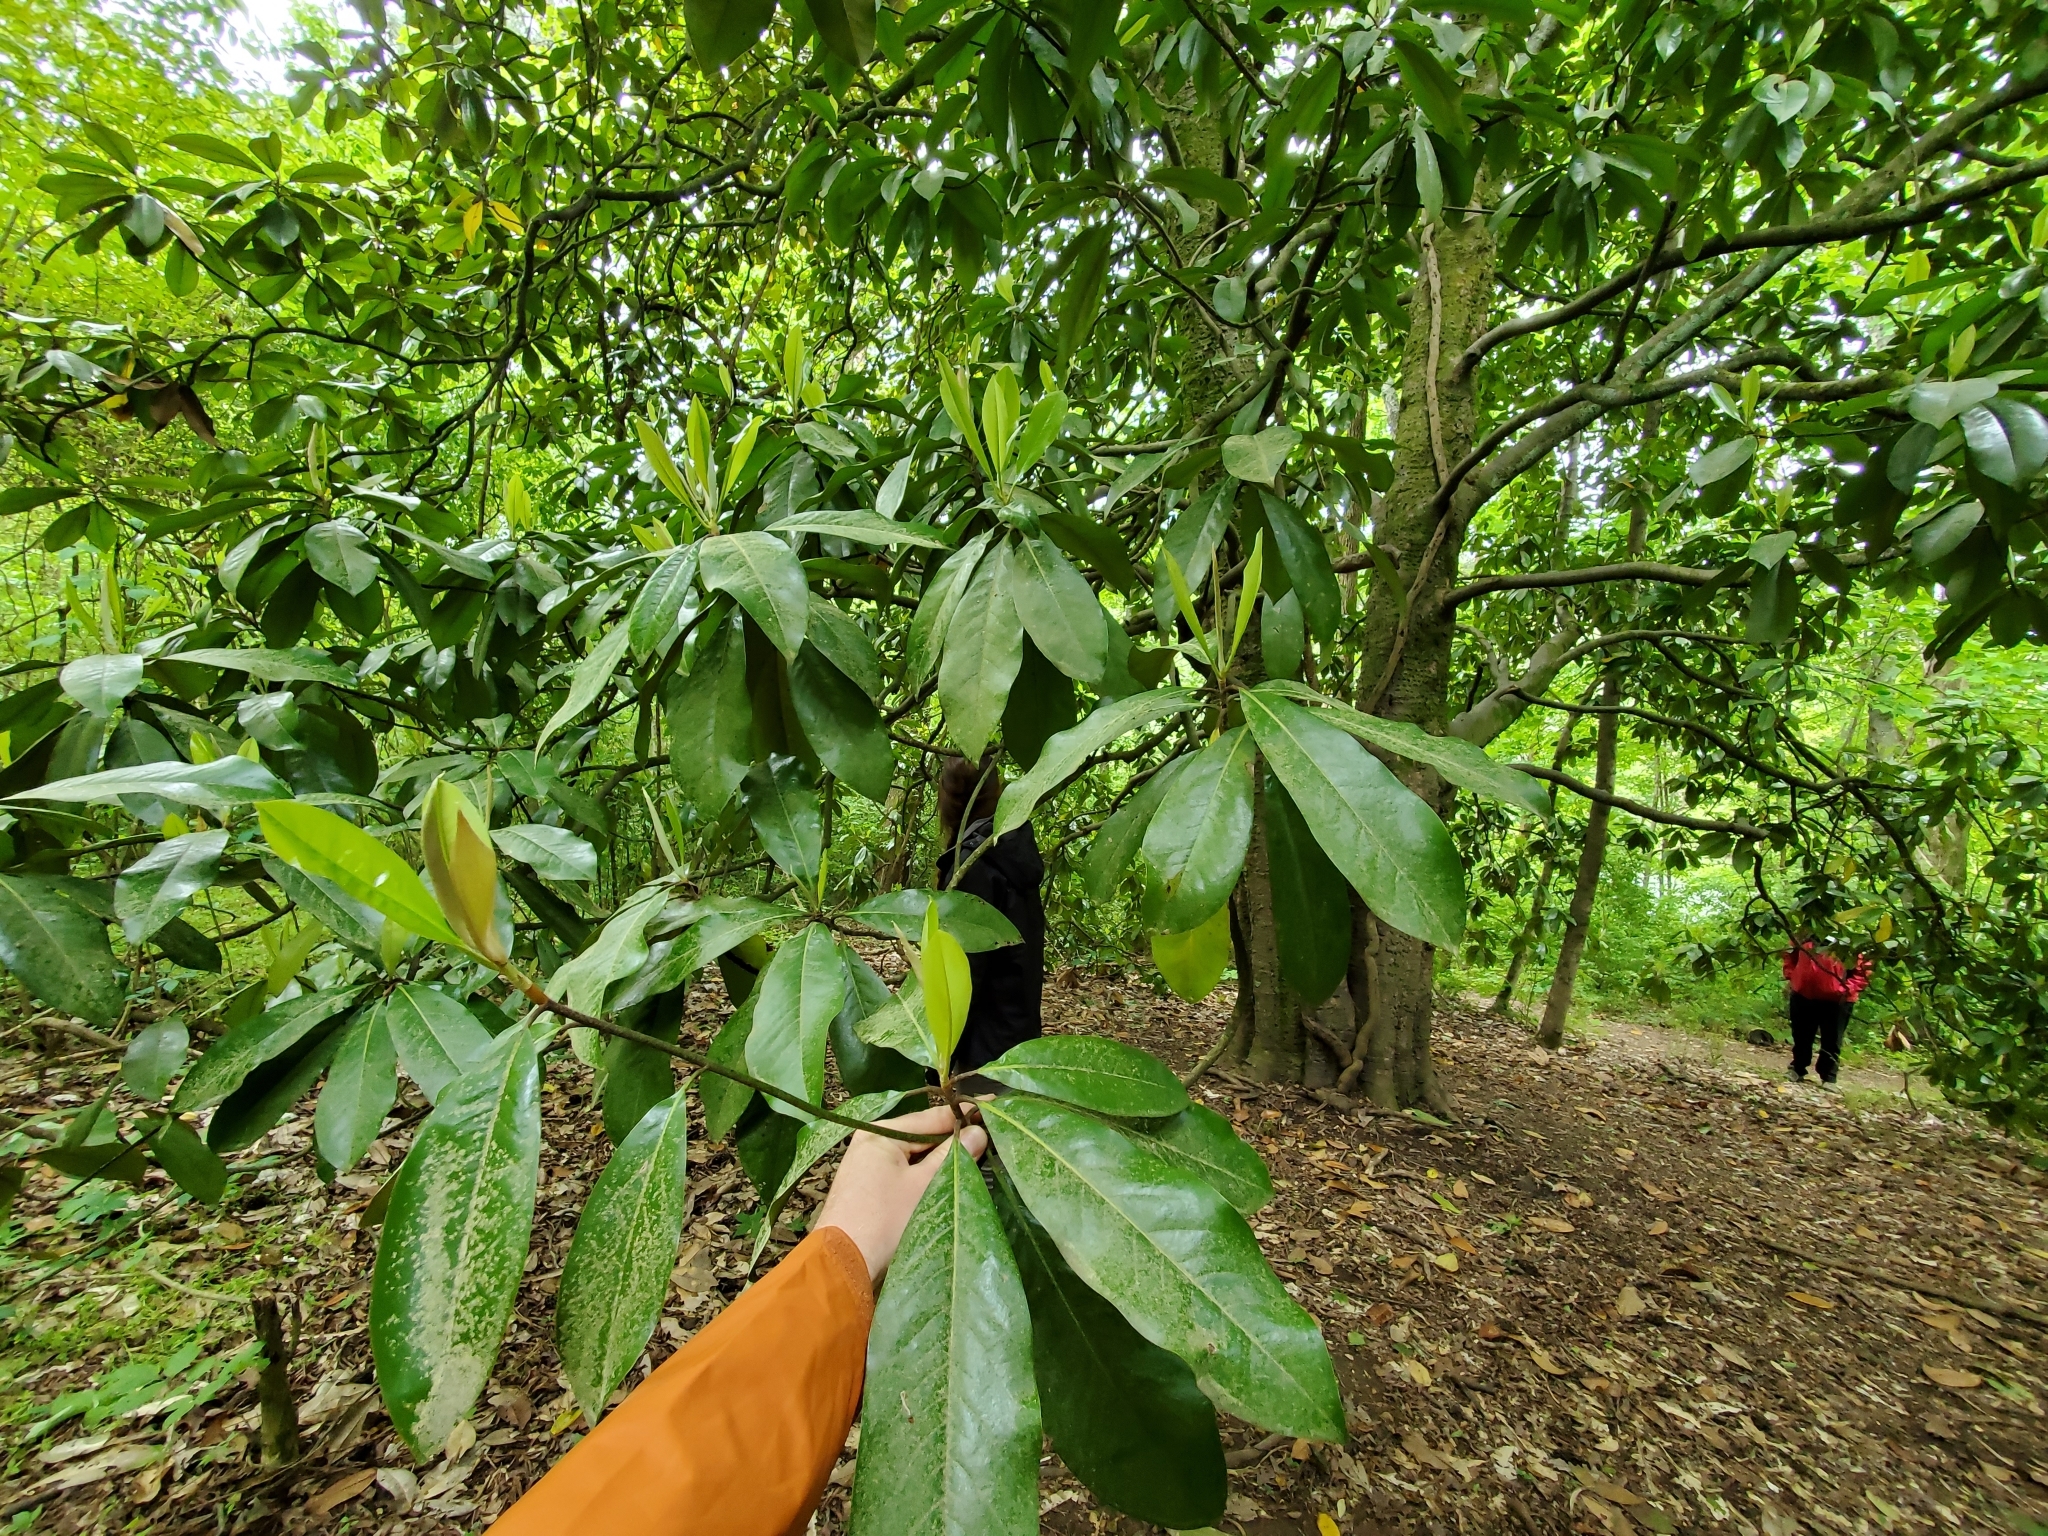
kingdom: Plantae
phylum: Tracheophyta
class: Magnoliopsida
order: Magnoliales
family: Magnoliaceae
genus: Magnolia
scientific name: Magnolia grandiflora
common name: Southern magnolia
